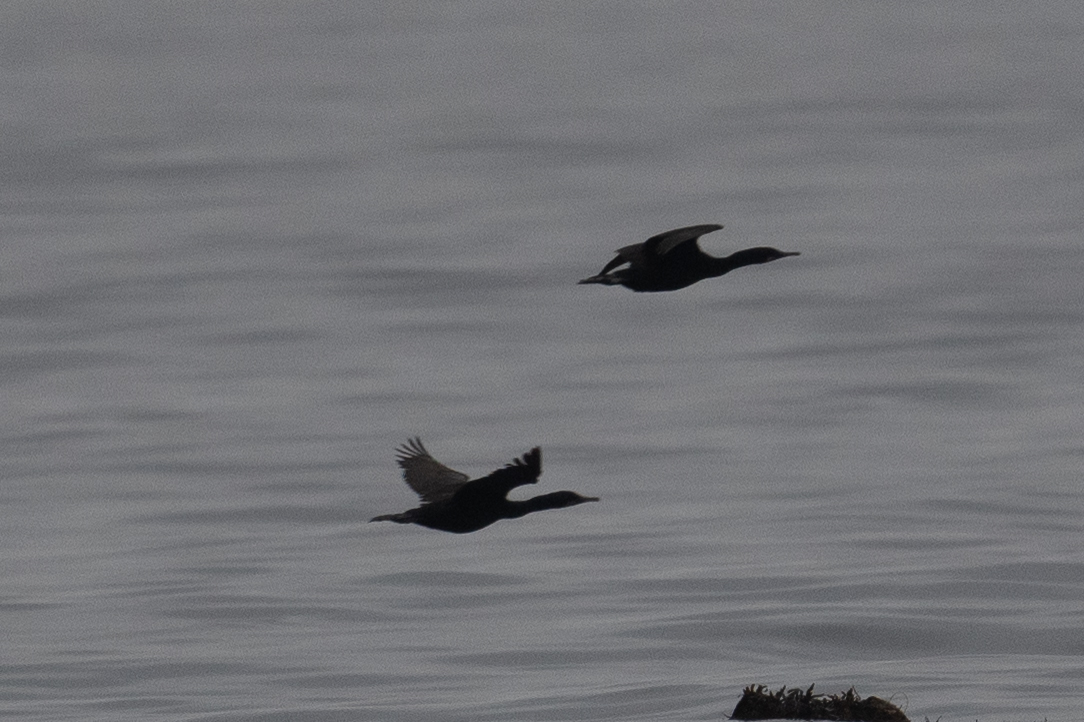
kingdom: Animalia
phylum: Chordata
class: Aves
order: Suliformes
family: Phalacrocoracidae
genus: Urile
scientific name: Urile penicillatus
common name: Brandt's cormorant
